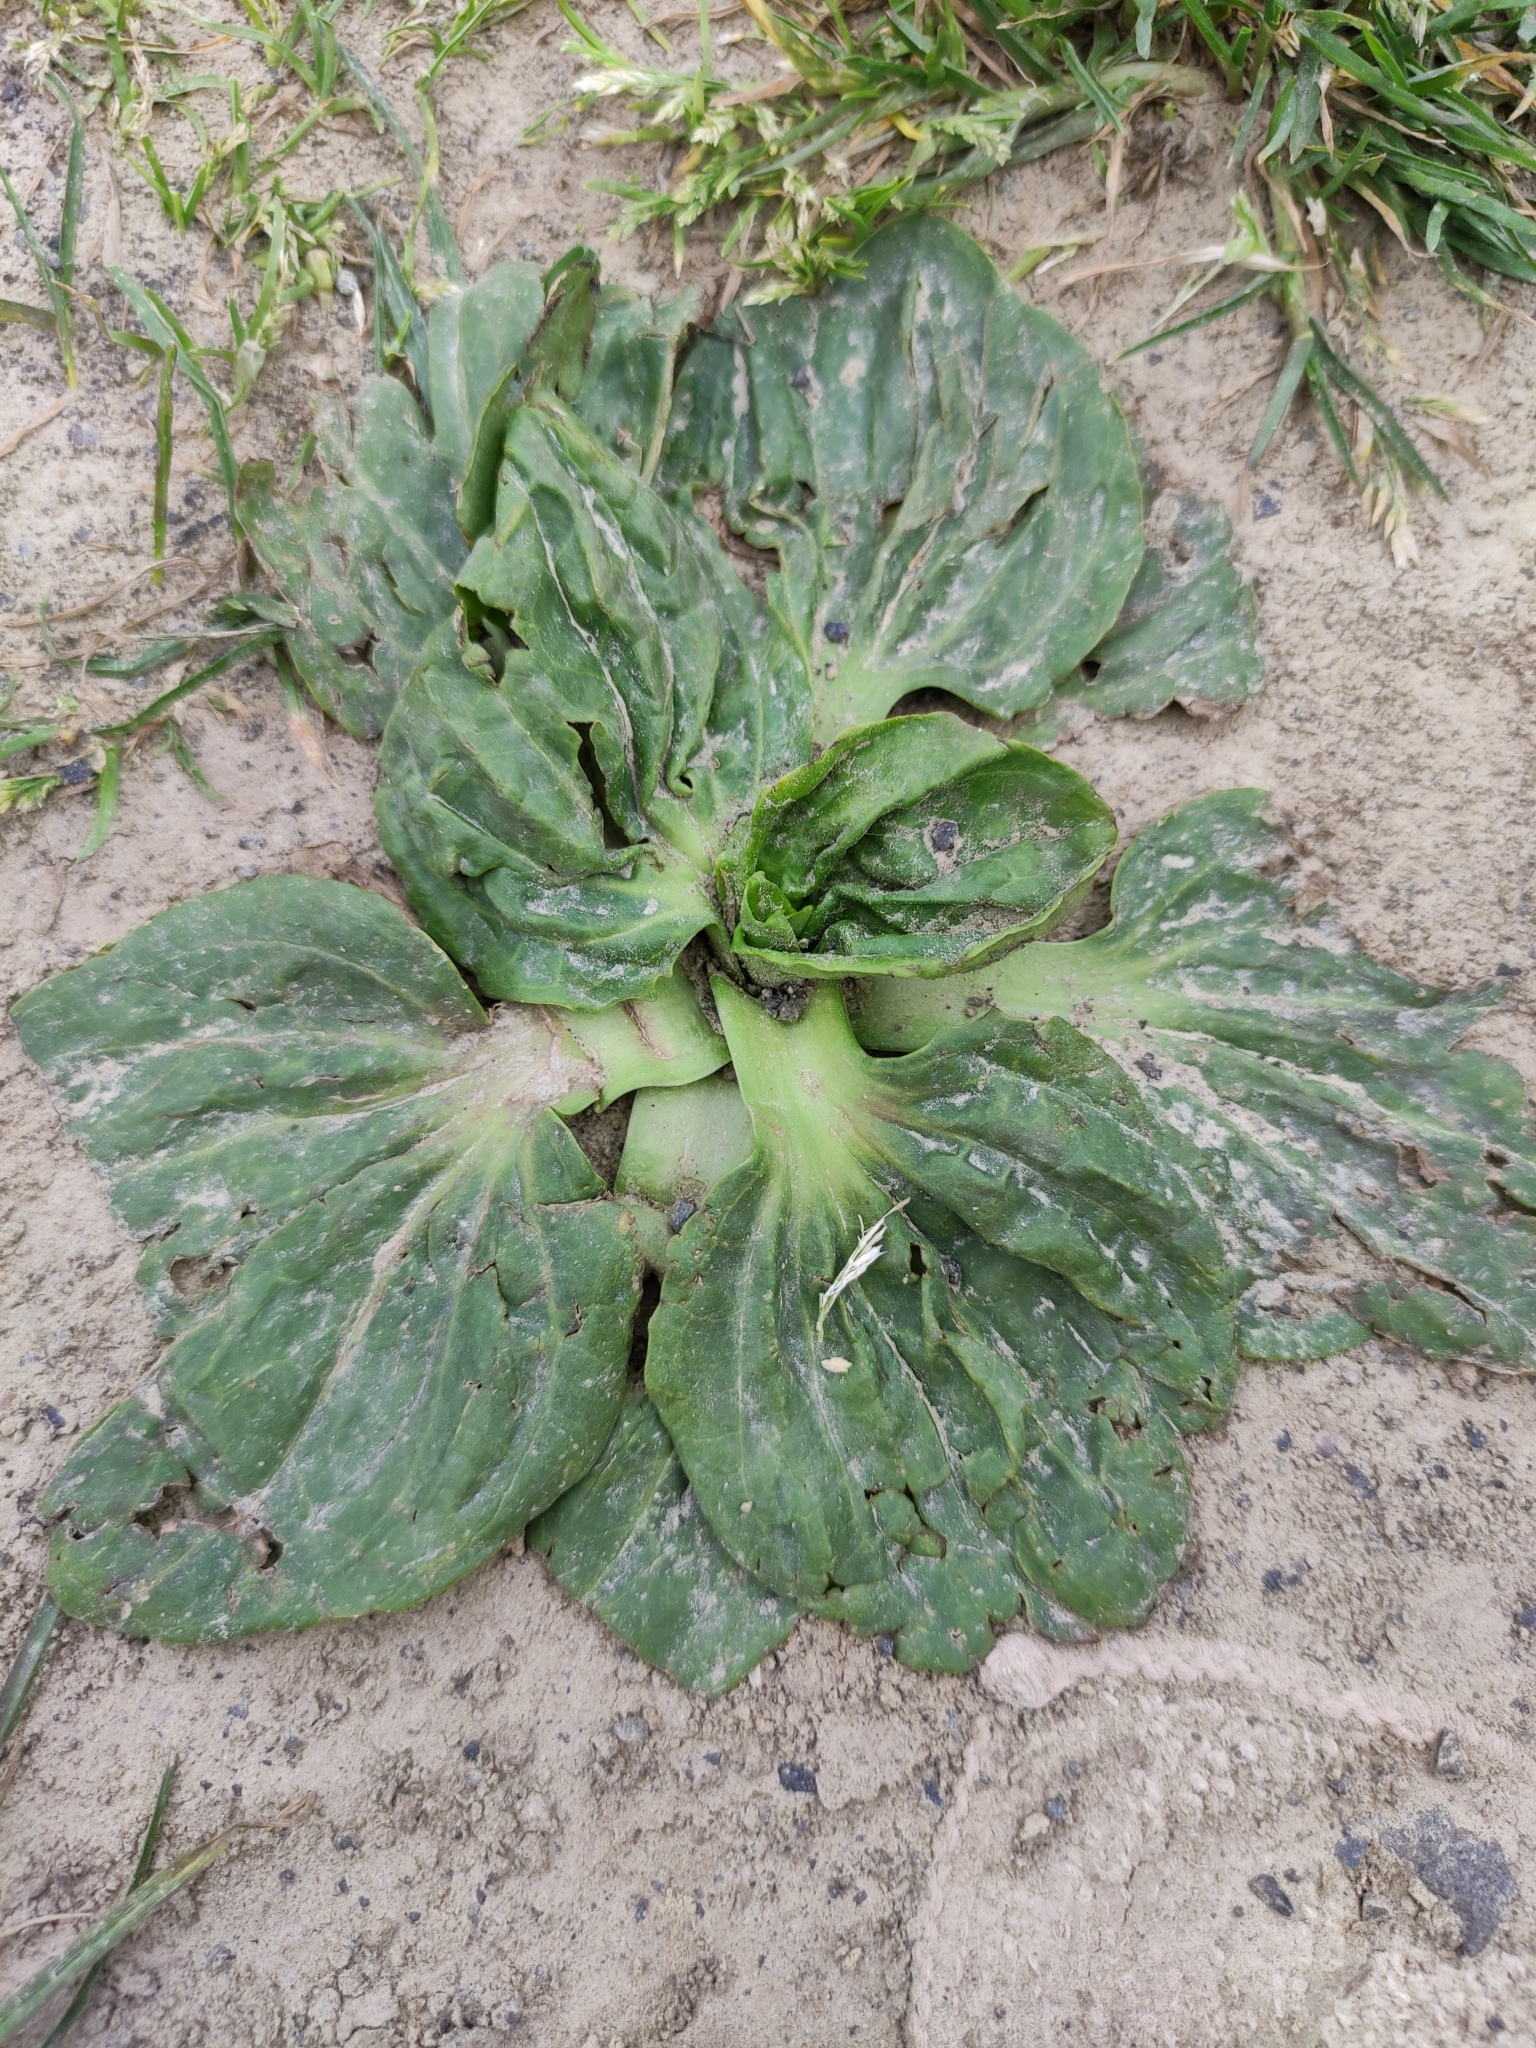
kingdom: Plantae
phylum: Tracheophyta
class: Magnoliopsida
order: Lamiales
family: Plantaginaceae
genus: Plantago
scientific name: Plantago major
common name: Common plantain
